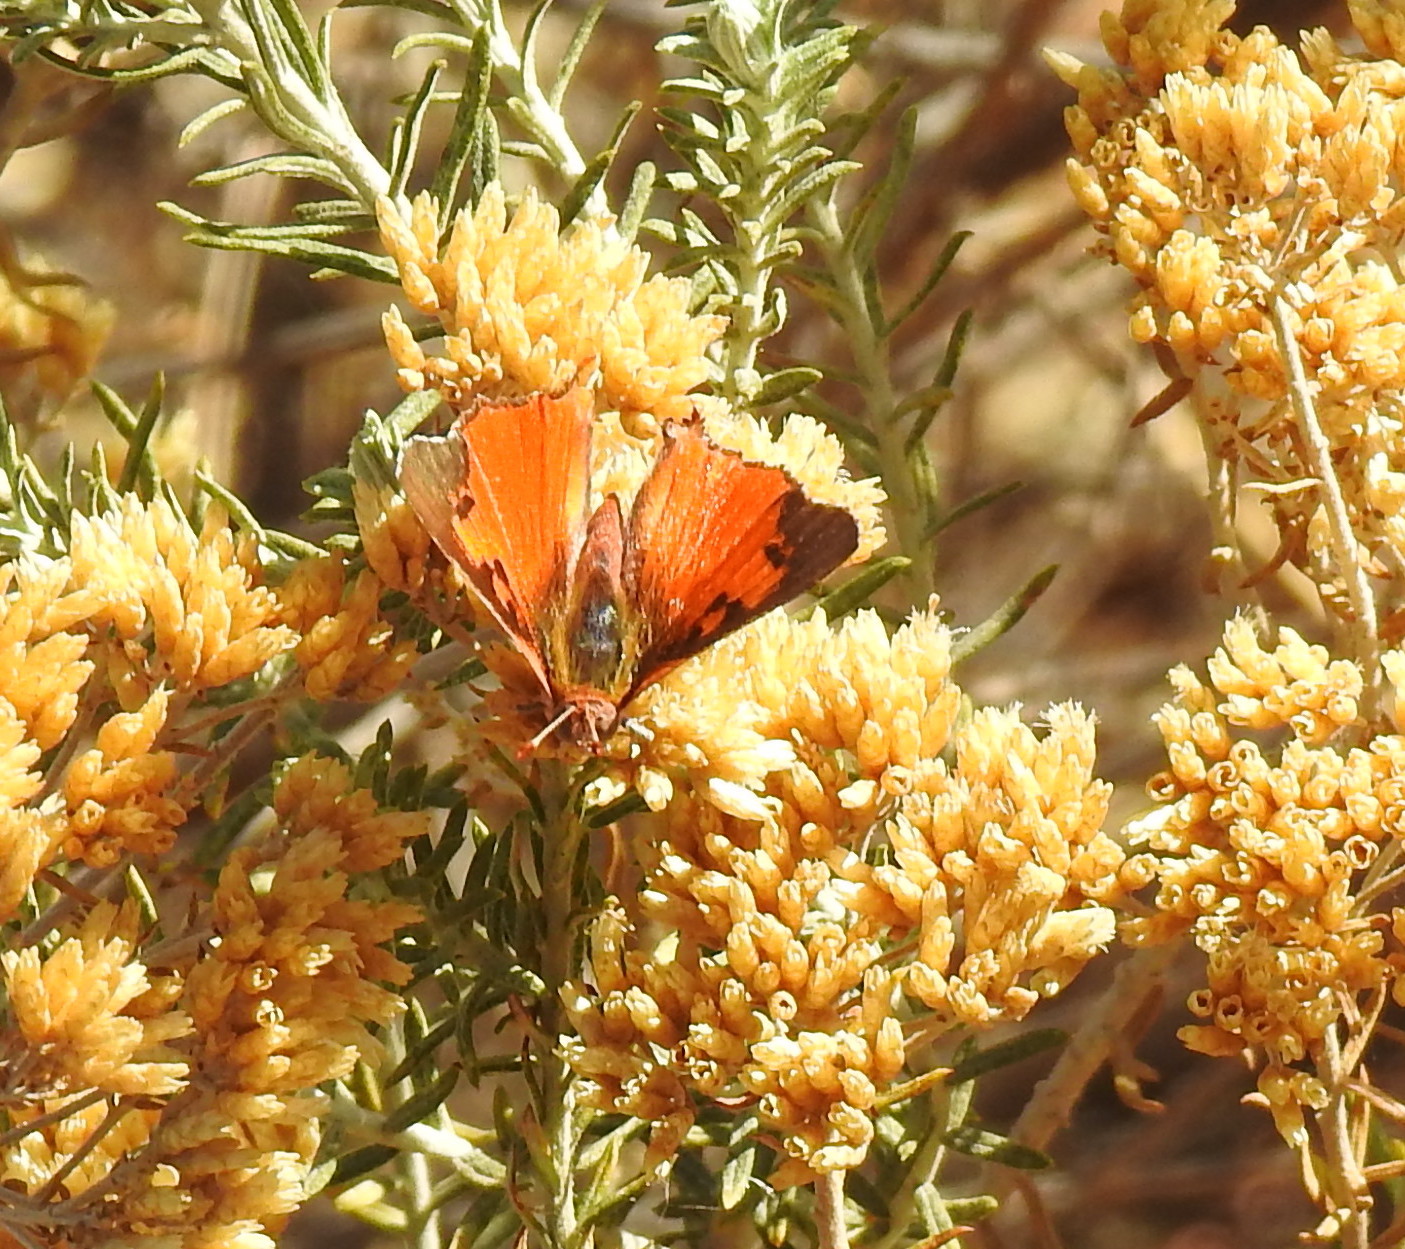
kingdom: Animalia
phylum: Arthropoda
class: Insecta
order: Lepidoptera
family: Lycaenidae
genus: Axiocerses
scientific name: Axiocerses perion
